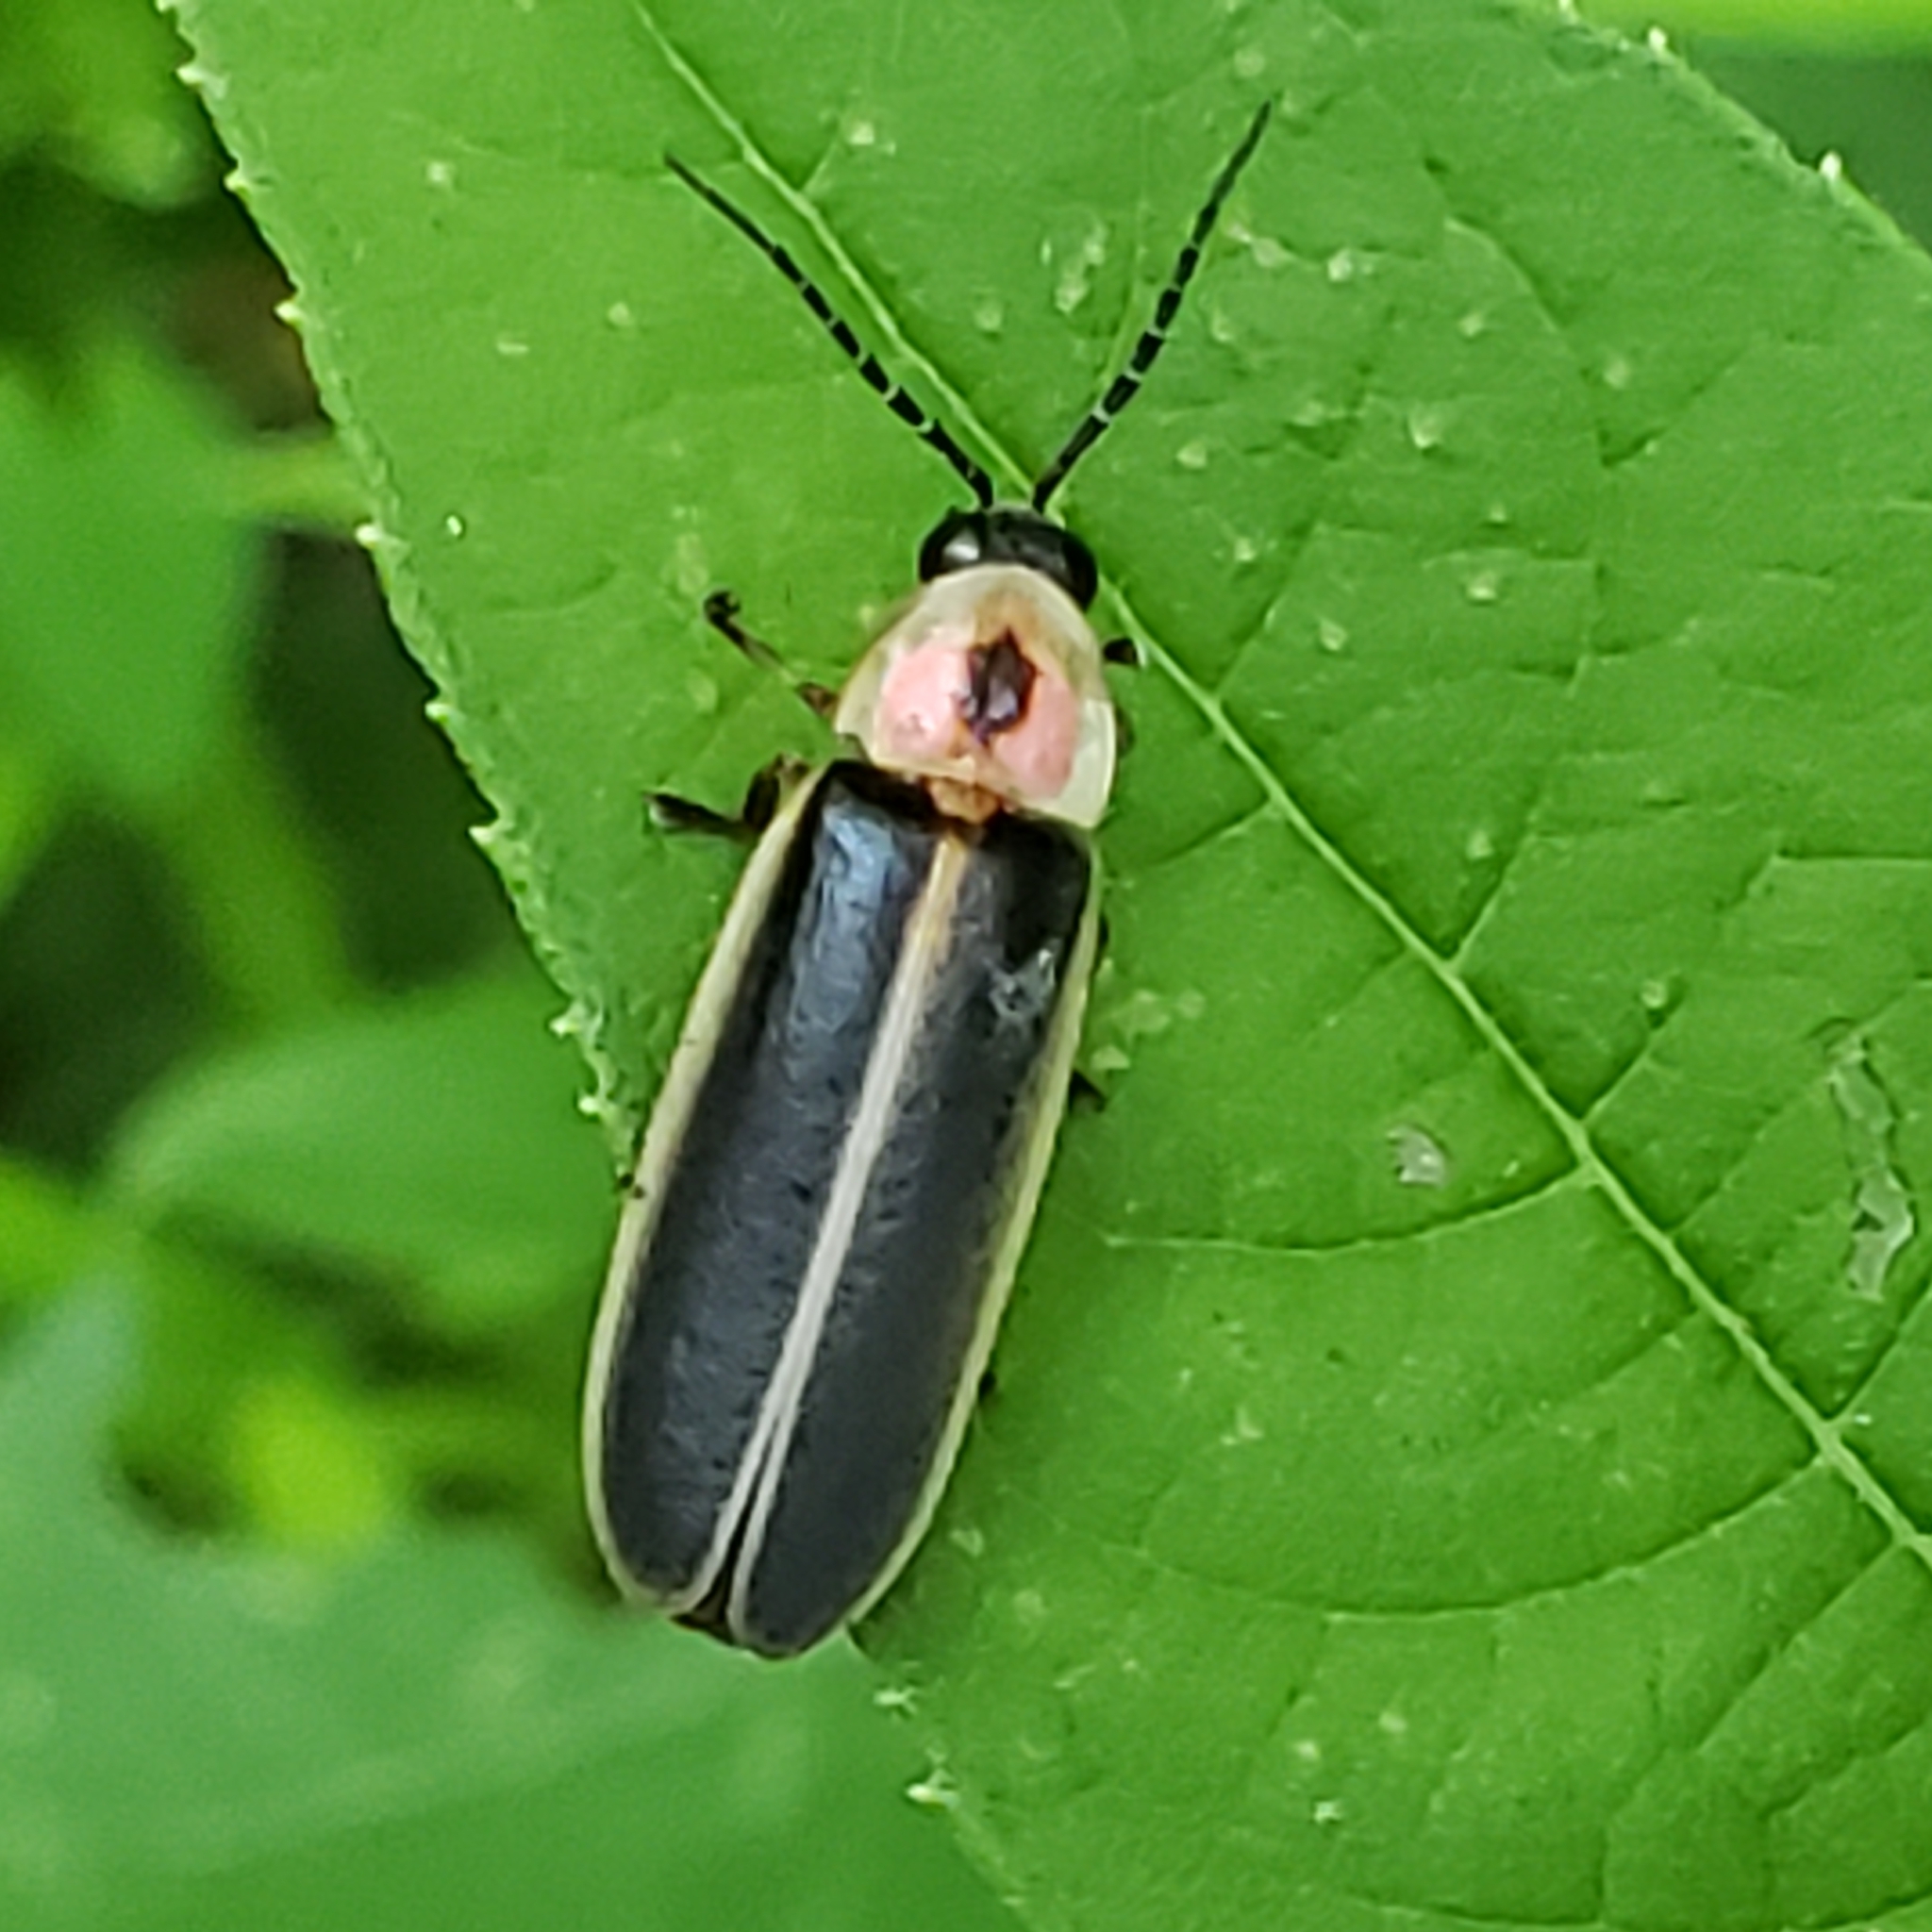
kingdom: Animalia
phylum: Arthropoda
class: Insecta
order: Coleoptera
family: Lampyridae
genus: Photinus
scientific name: Photinus pyralis
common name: Big dipper firefly
